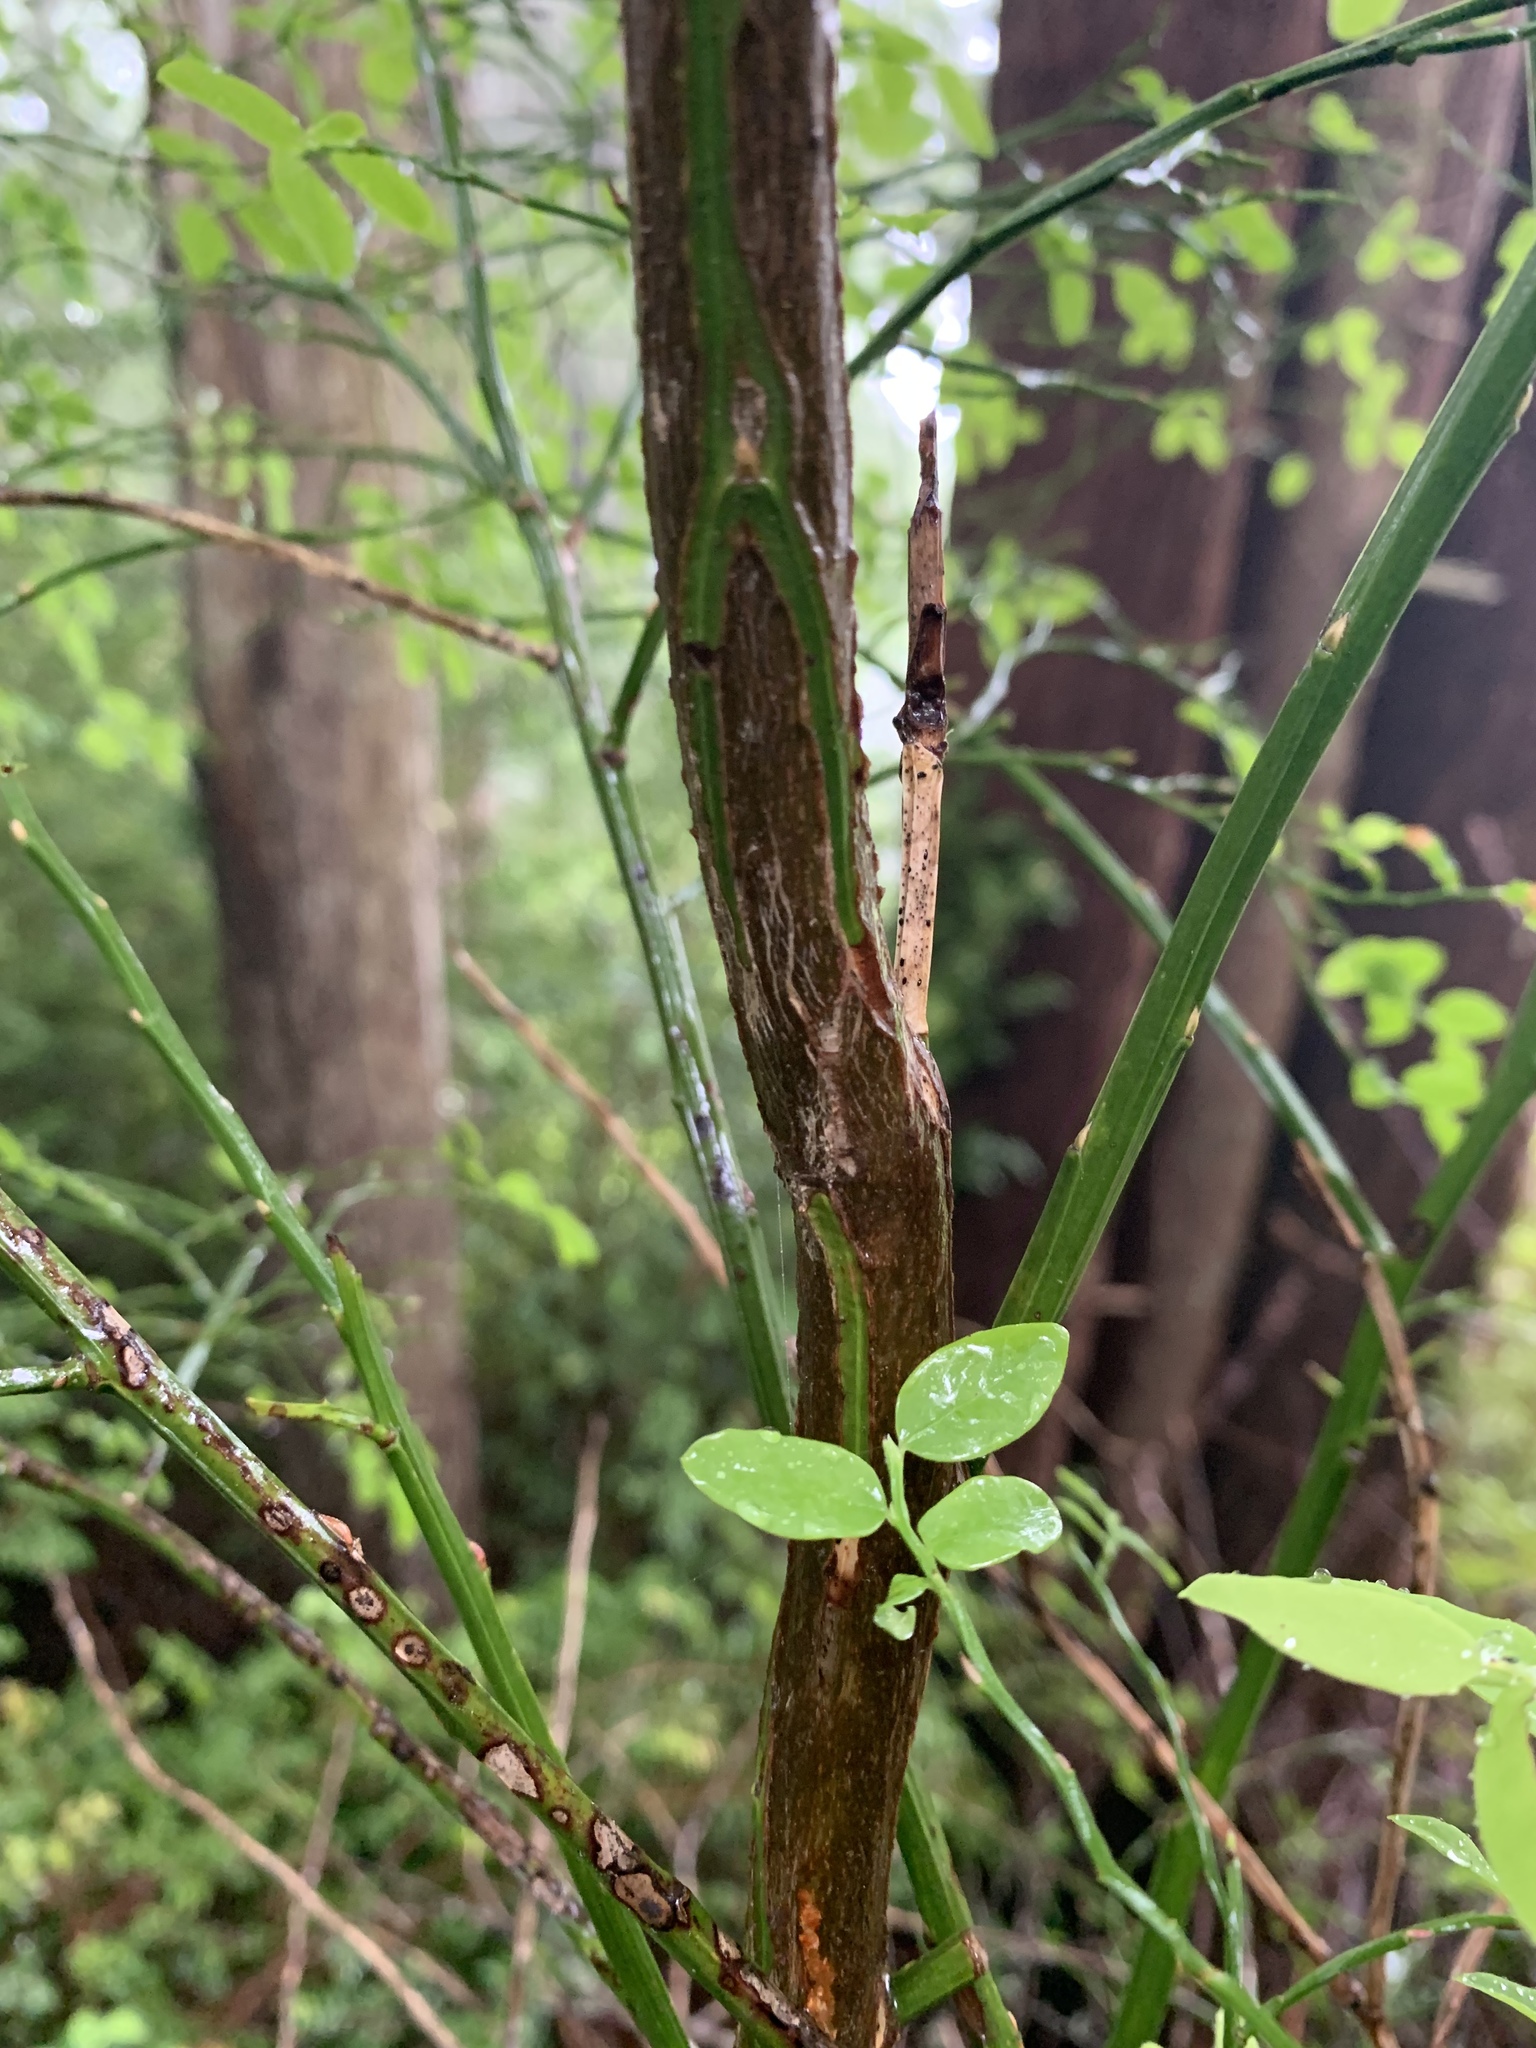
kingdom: Plantae
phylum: Tracheophyta
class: Magnoliopsida
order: Ericales
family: Ericaceae
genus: Vaccinium
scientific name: Vaccinium parvifolium
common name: Red-huckleberry
